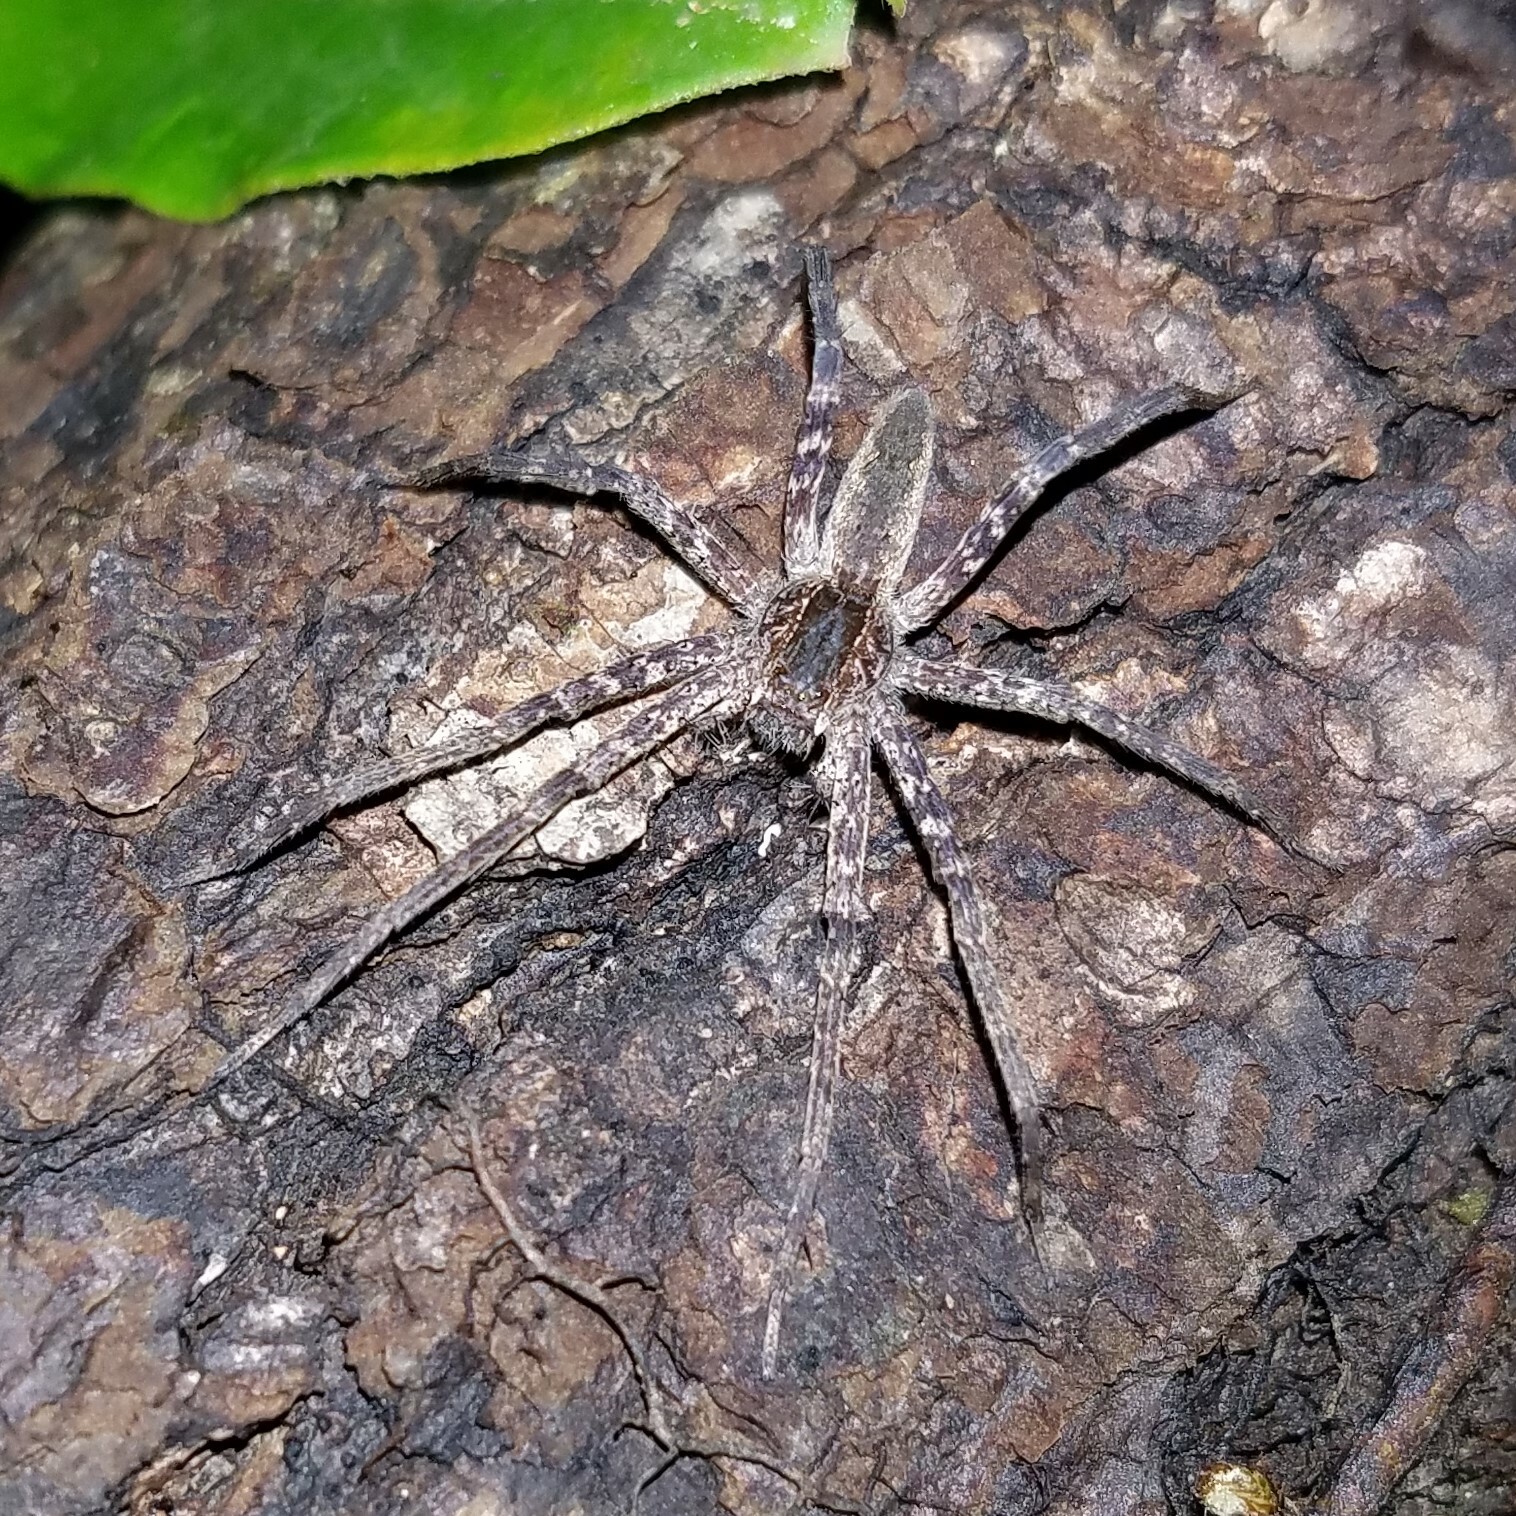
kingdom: Animalia
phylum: Arthropoda
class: Arachnida
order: Araneae
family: Pisauridae
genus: Pisaurina
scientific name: Pisaurina mira
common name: American nursery web spider
